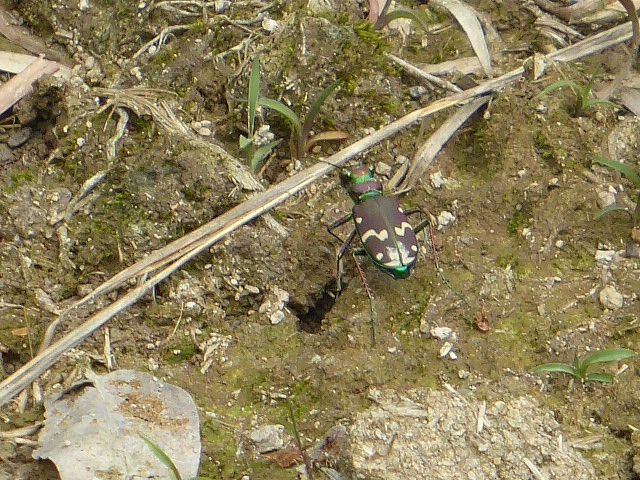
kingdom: Animalia
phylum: Arthropoda
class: Insecta
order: Coleoptera
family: Carabidae
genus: Cicindela
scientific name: Cicindela limbalis
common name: Common claybank tiger beetle
